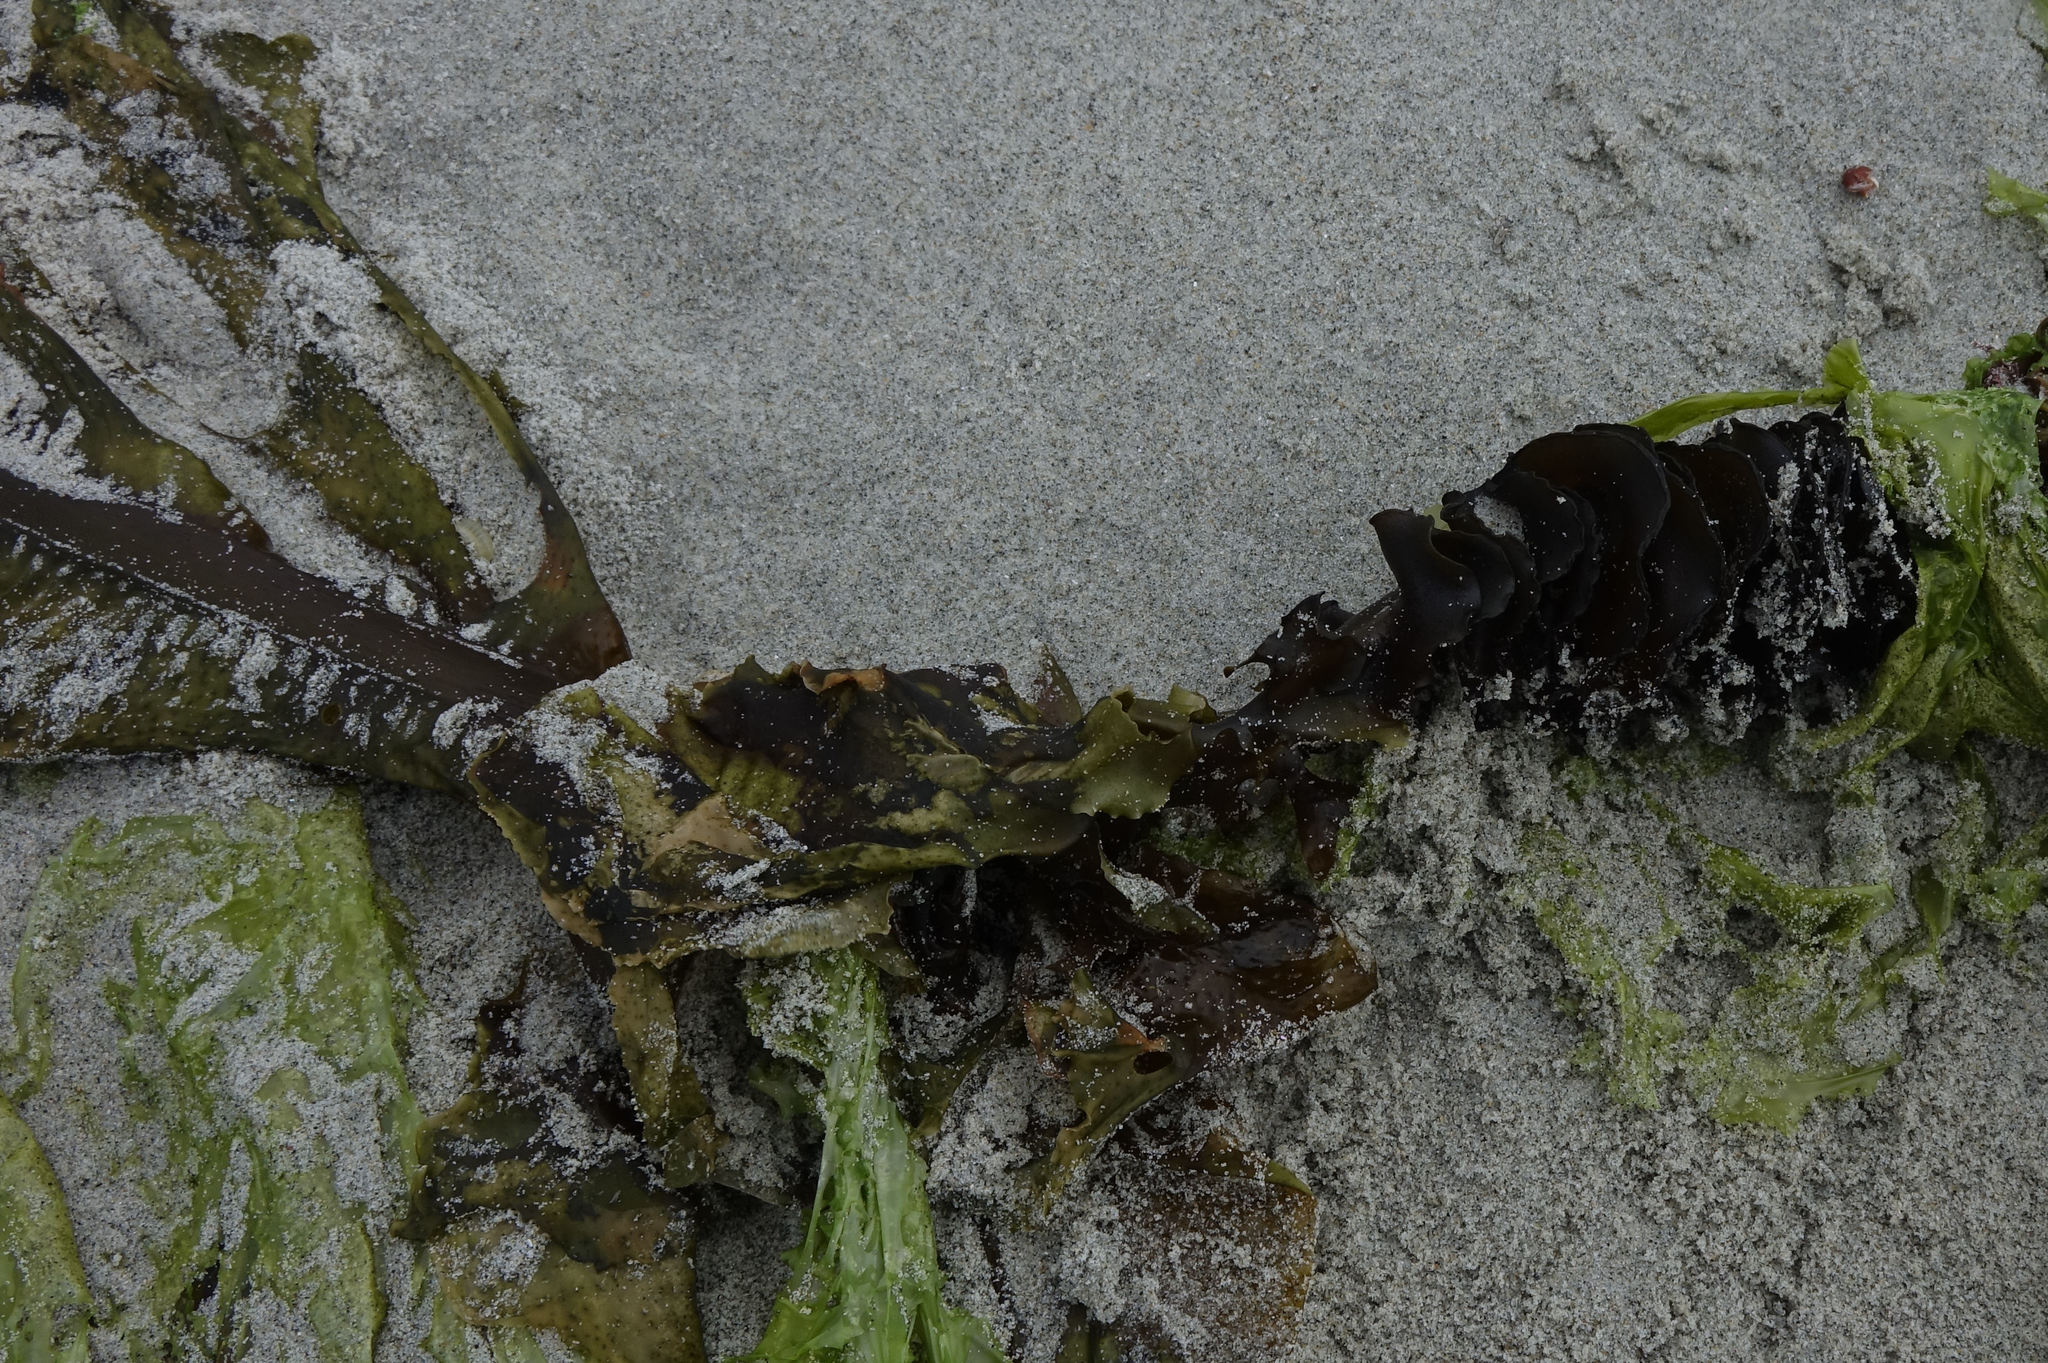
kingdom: Chromista
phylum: Ochrophyta
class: Phaeophyceae
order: Laminariales
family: Alariaceae
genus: Undaria
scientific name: Undaria pinnatifida
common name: Asian kelp
